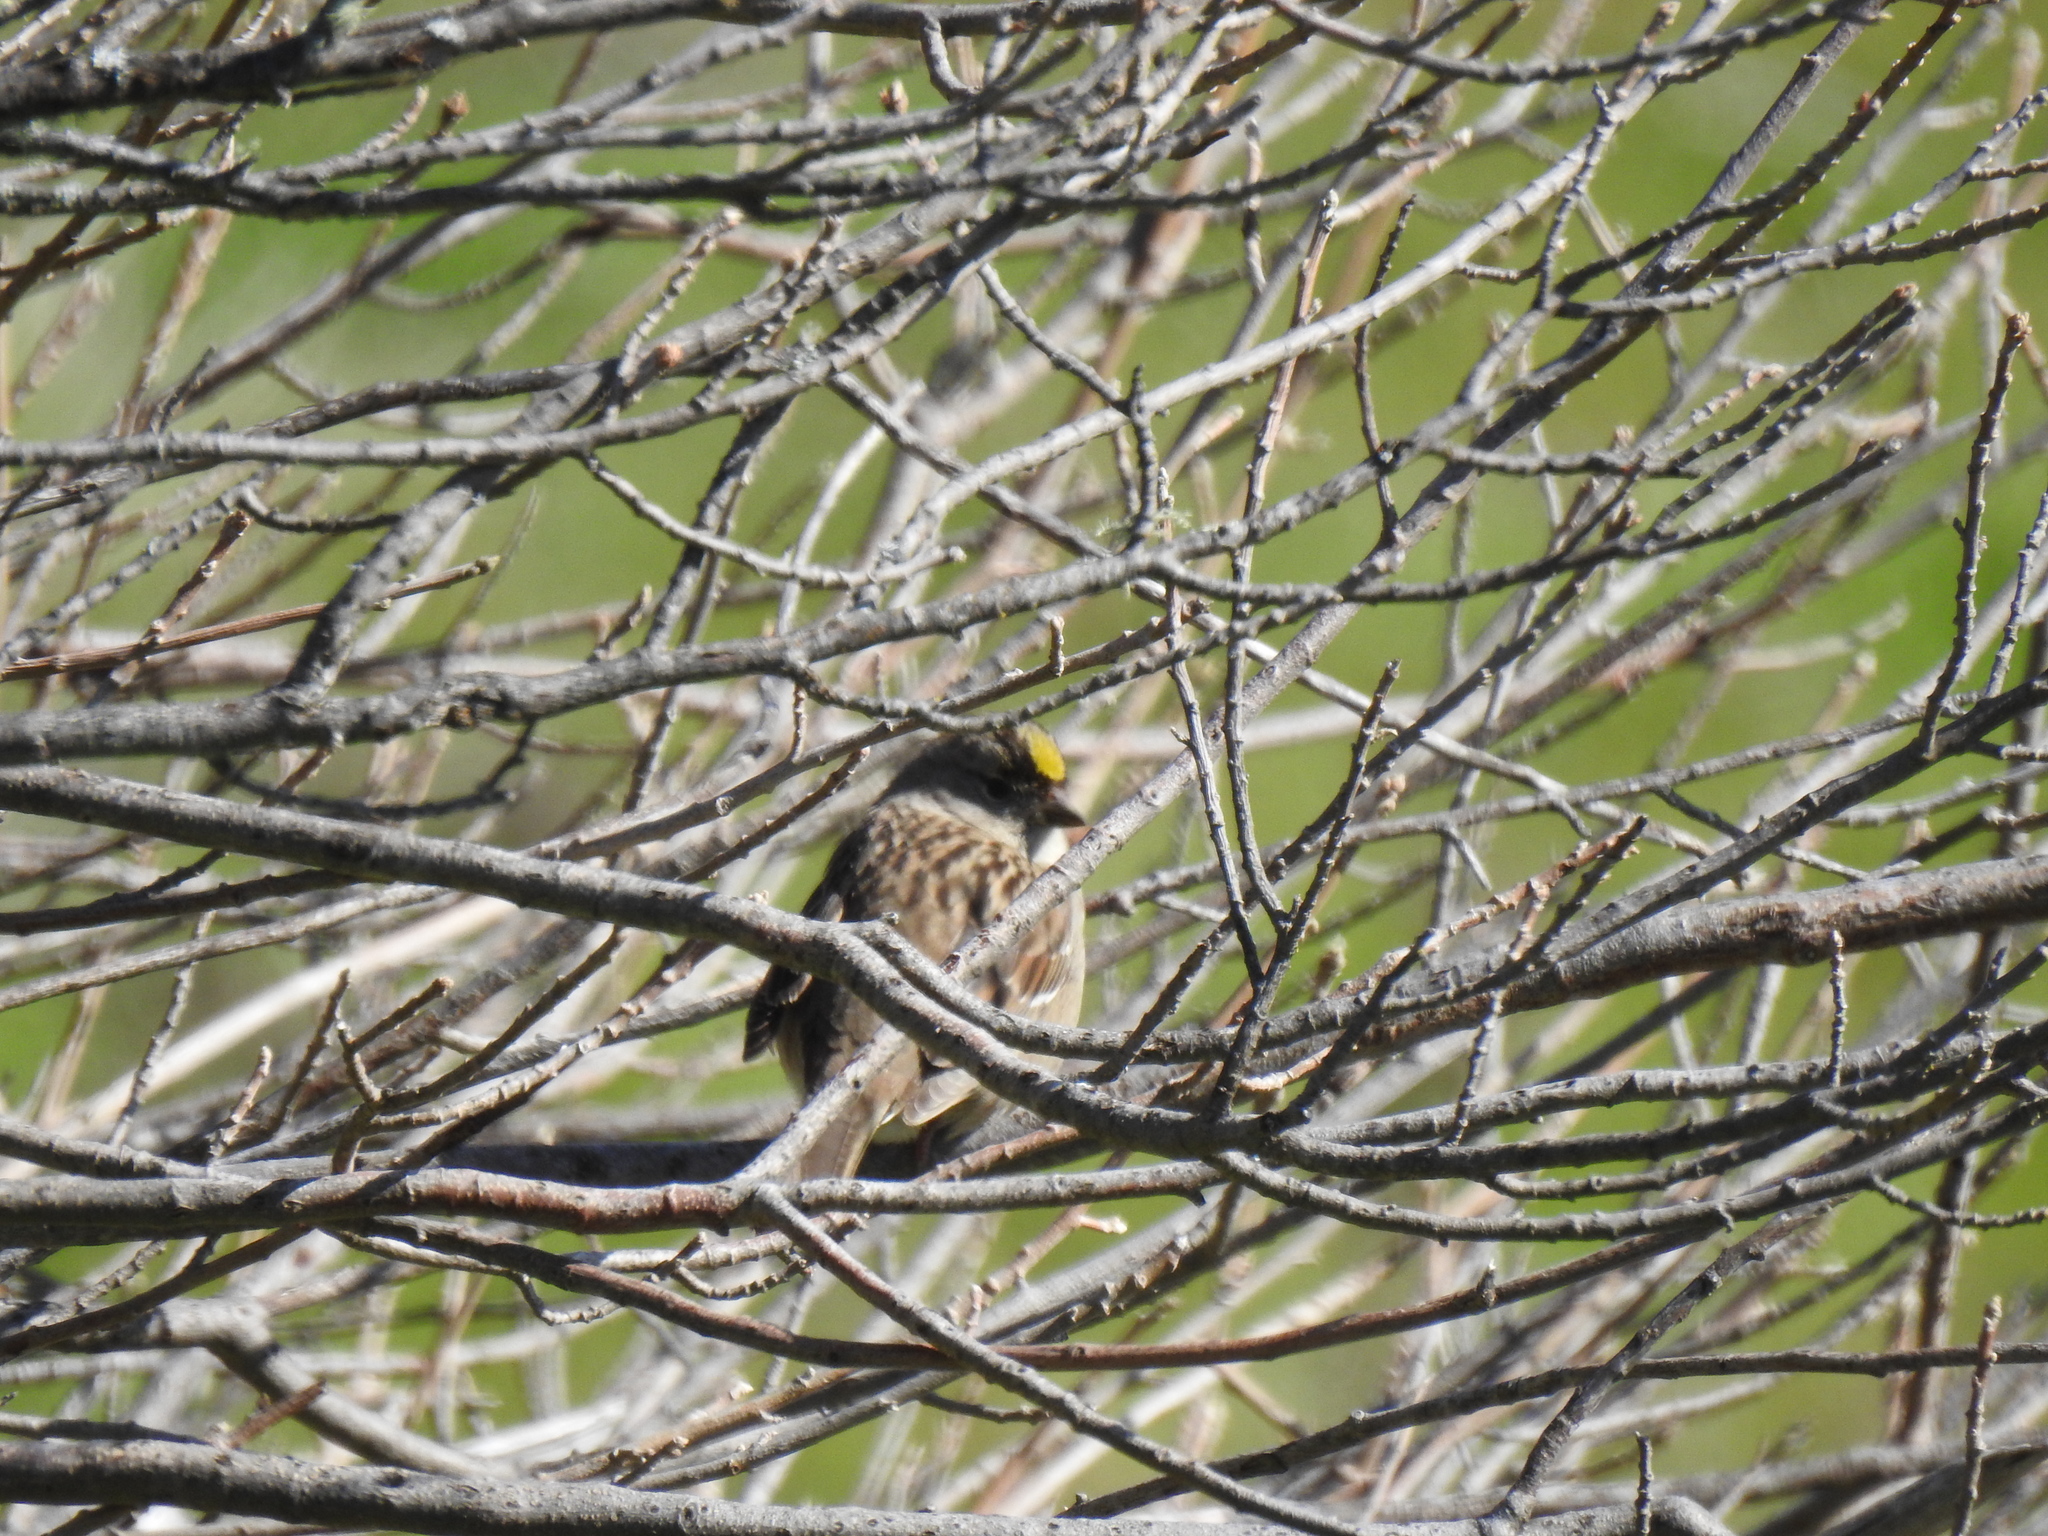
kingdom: Animalia
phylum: Chordata
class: Aves
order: Passeriformes
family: Passerellidae
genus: Zonotrichia
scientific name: Zonotrichia atricapilla
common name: Golden-crowned sparrow
